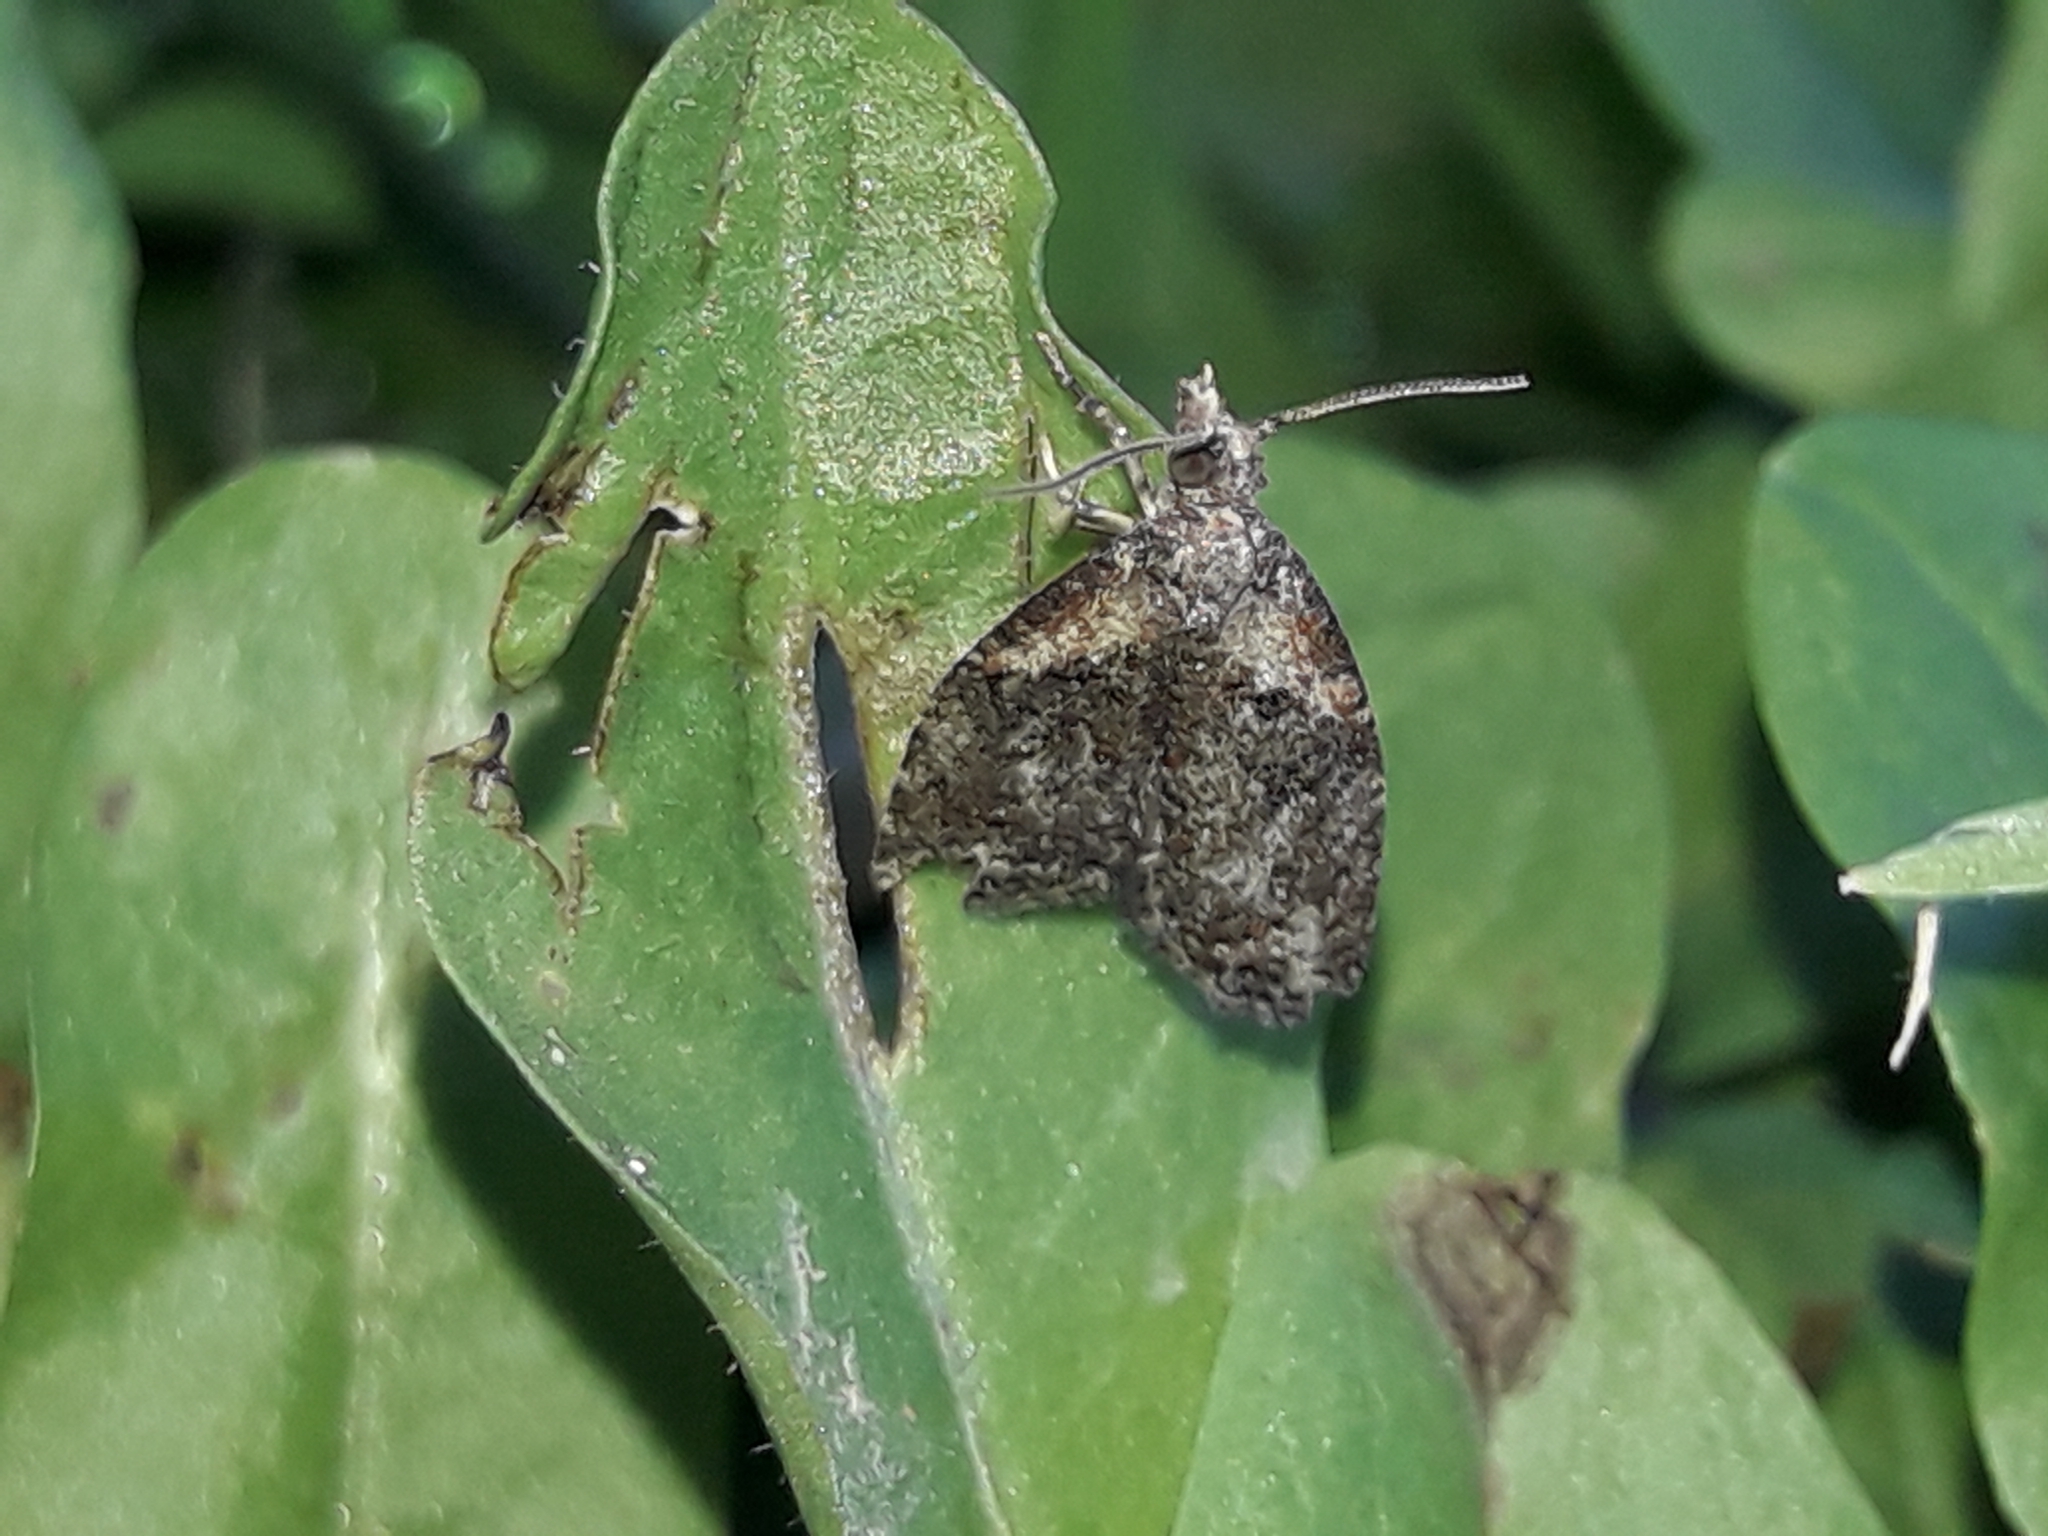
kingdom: Animalia
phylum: Arthropoda
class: Insecta
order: Lepidoptera
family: Tortricidae
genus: Capua
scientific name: Capua intractana
